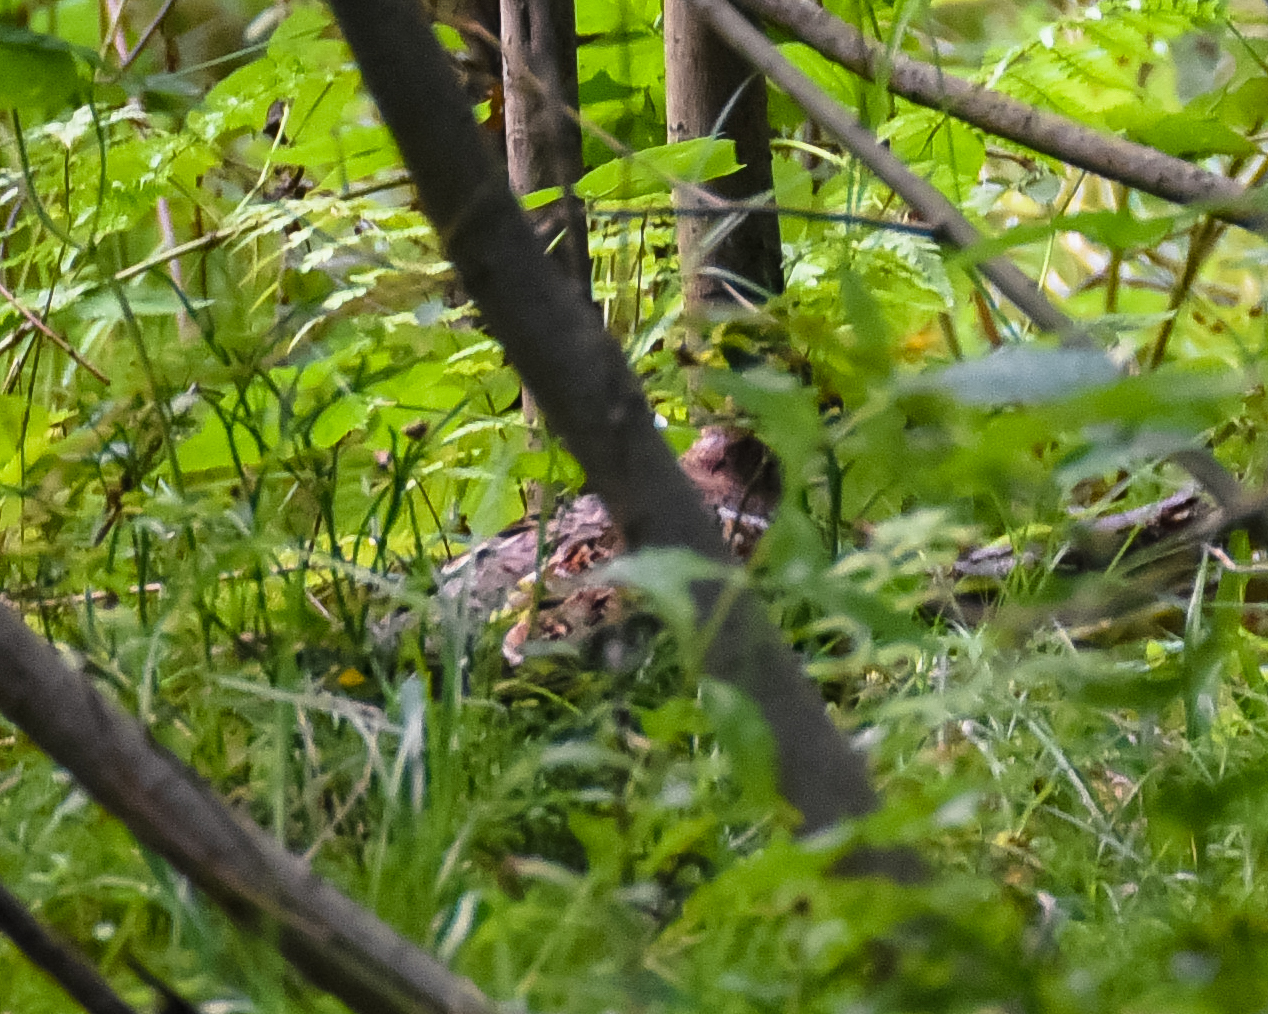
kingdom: Animalia
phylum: Chordata
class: Aves
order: Galliformes
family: Phasianidae
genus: Tetrastes
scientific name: Tetrastes bonasia
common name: Hazel grouse
